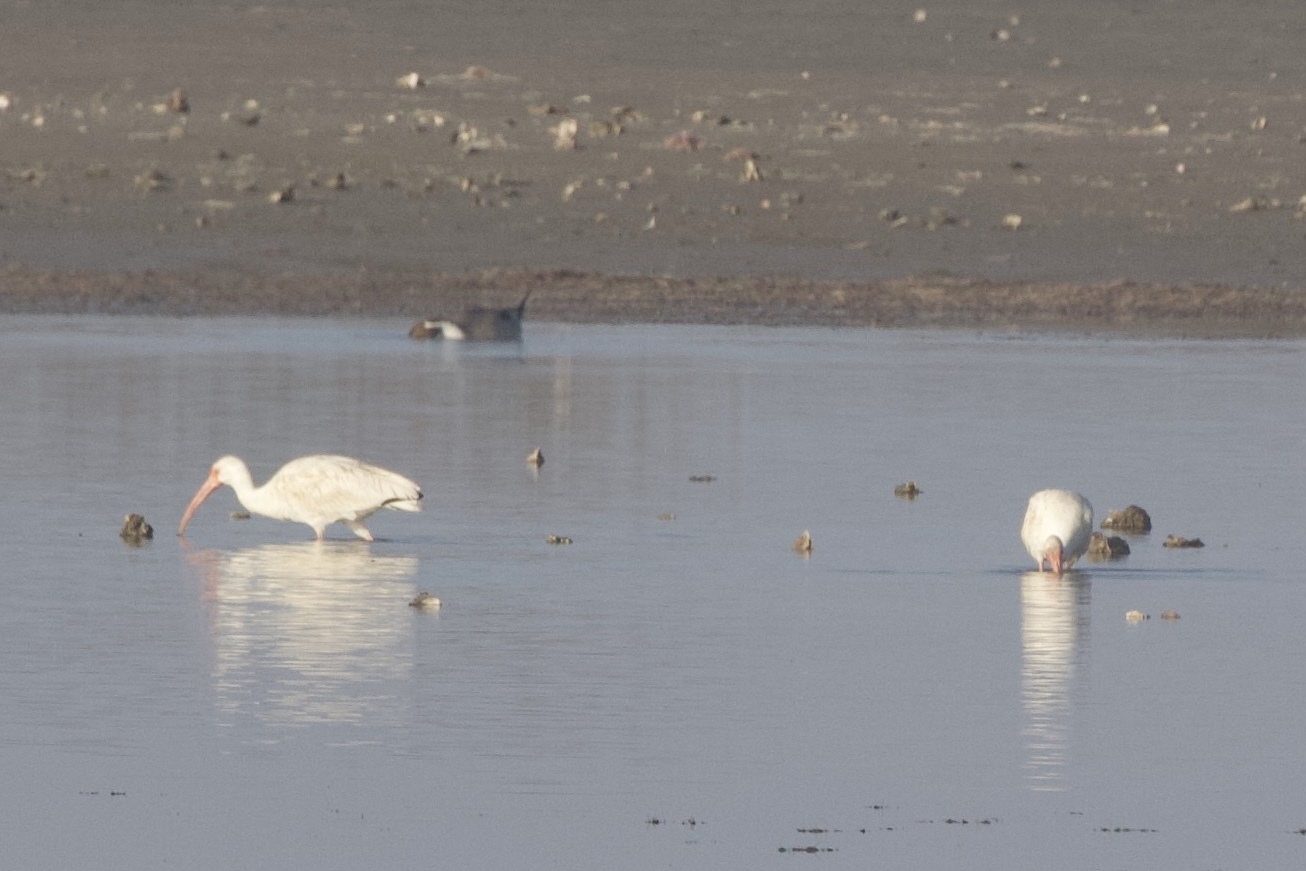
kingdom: Animalia
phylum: Chordata
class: Aves
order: Pelecaniformes
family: Threskiornithidae
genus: Eudocimus
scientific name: Eudocimus albus
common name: White ibis
